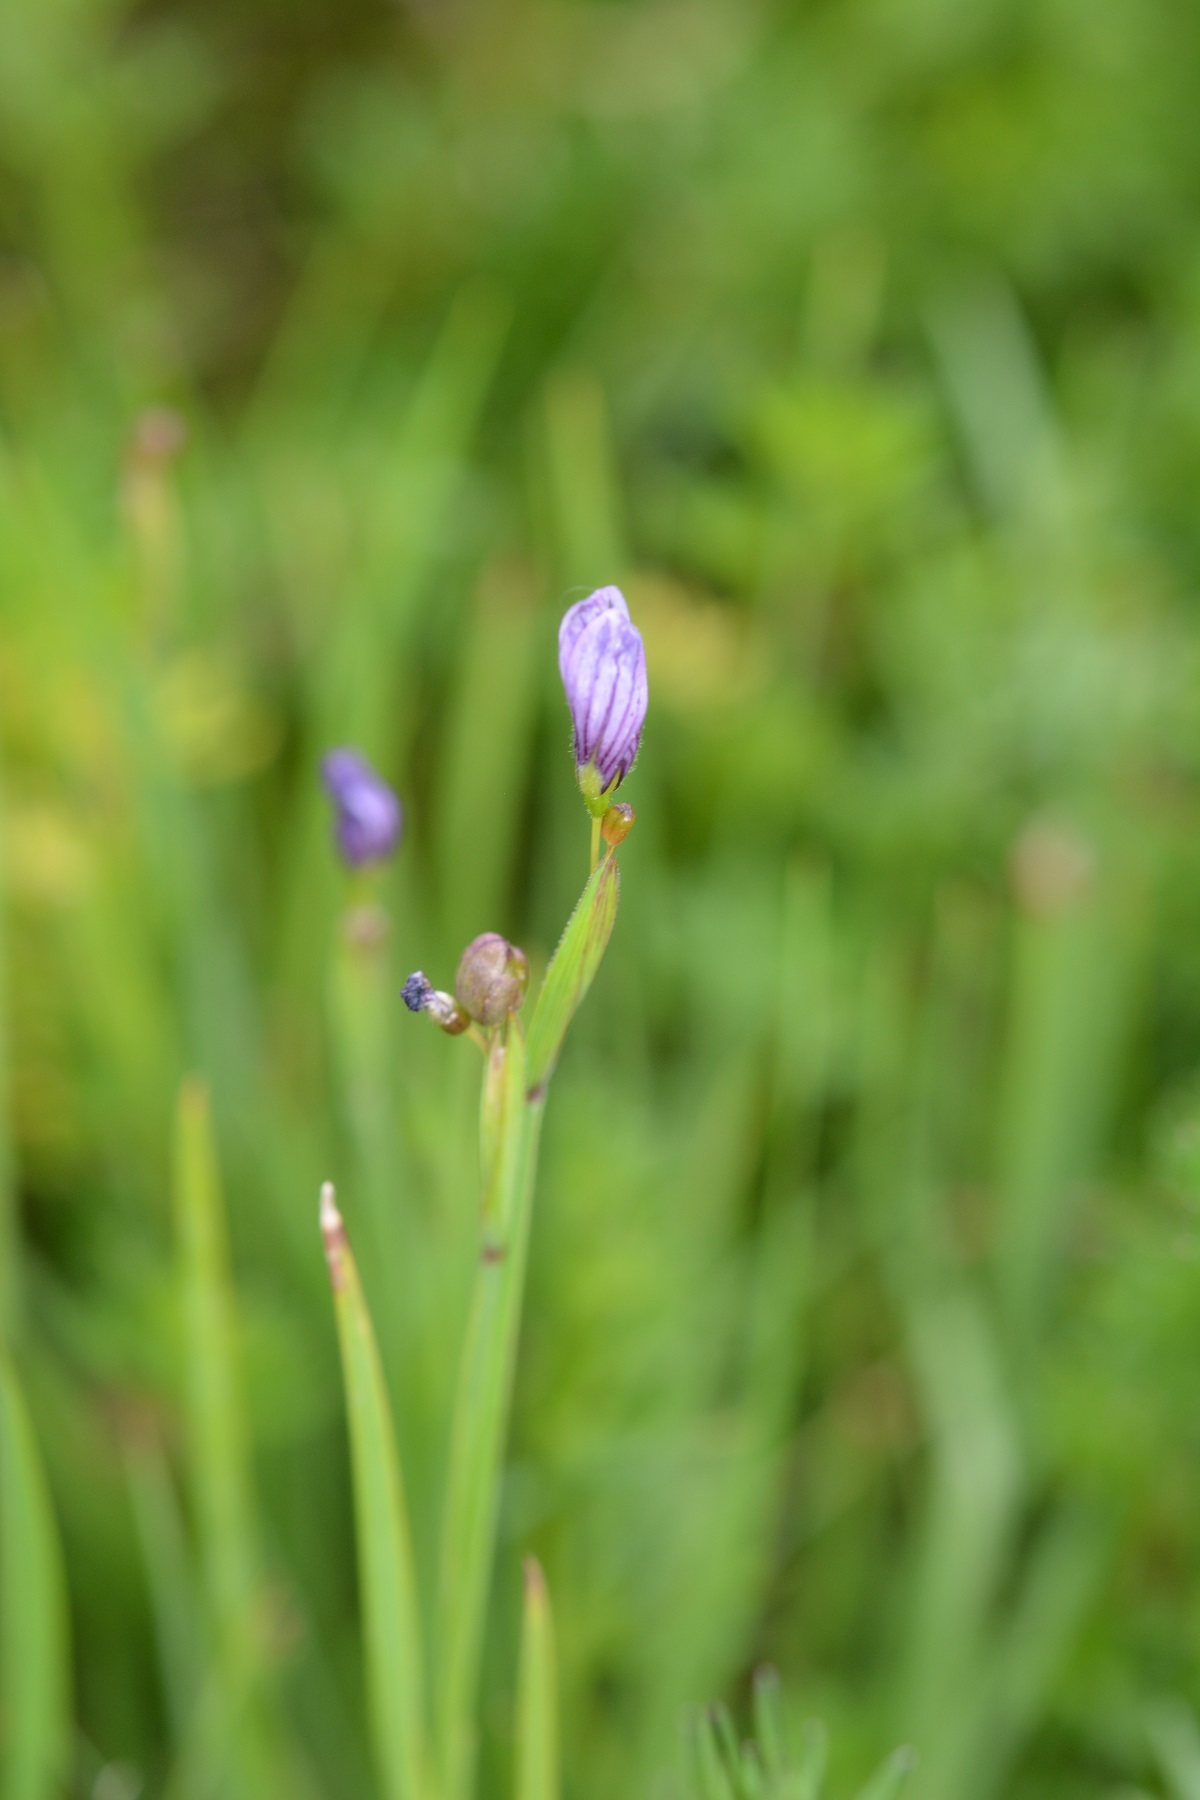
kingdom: Plantae
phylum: Tracheophyta
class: Liliopsida
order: Asparagales
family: Iridaceae
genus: Sisyrinchium
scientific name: Sisyrinchium scabrum
